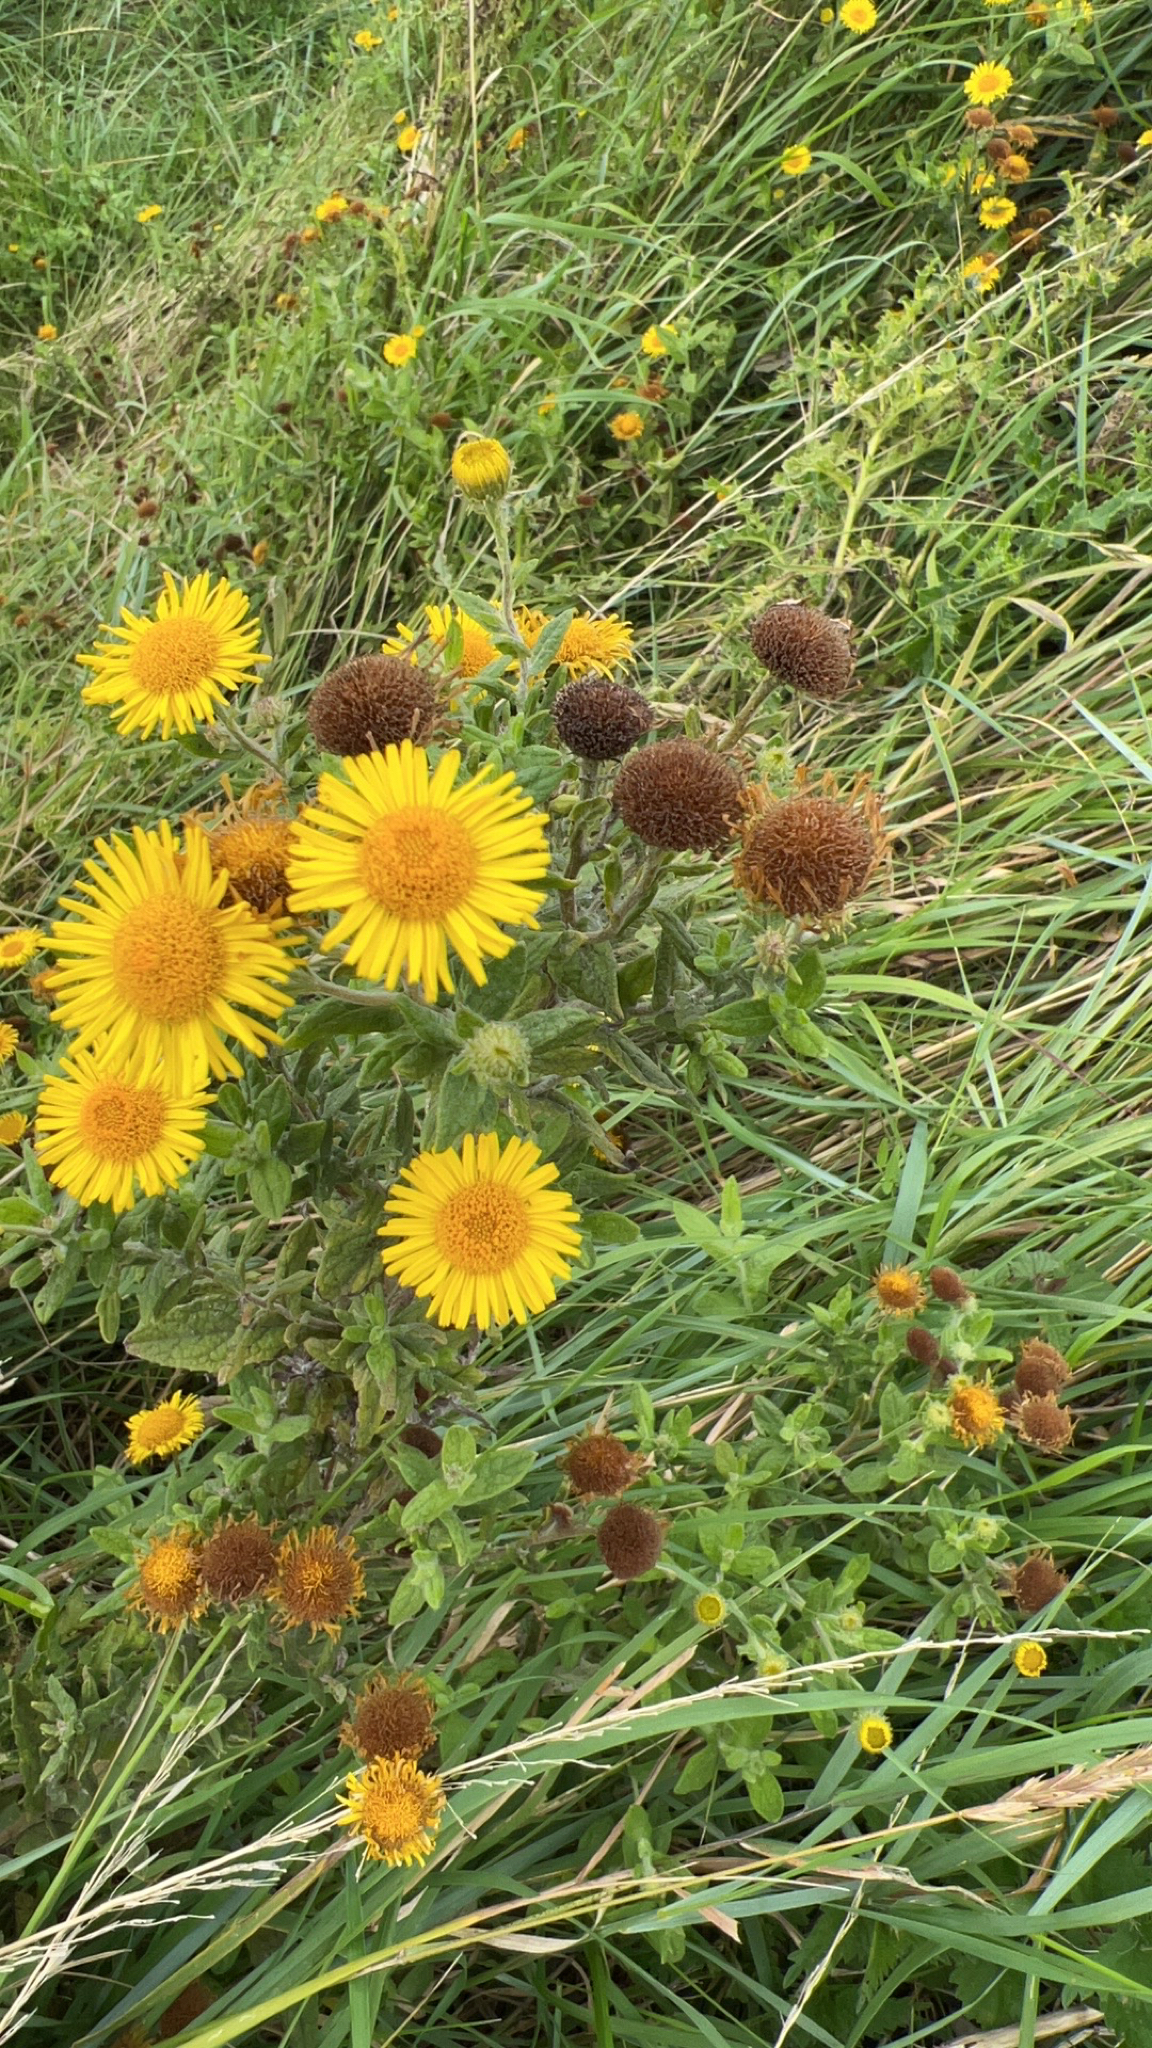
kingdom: Plantae
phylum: Tracheophyta
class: Magnoliopsida
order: Asterales
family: Asteraceae
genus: Pulicaria
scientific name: Pulicaria dysenterica
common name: Common fleabane
